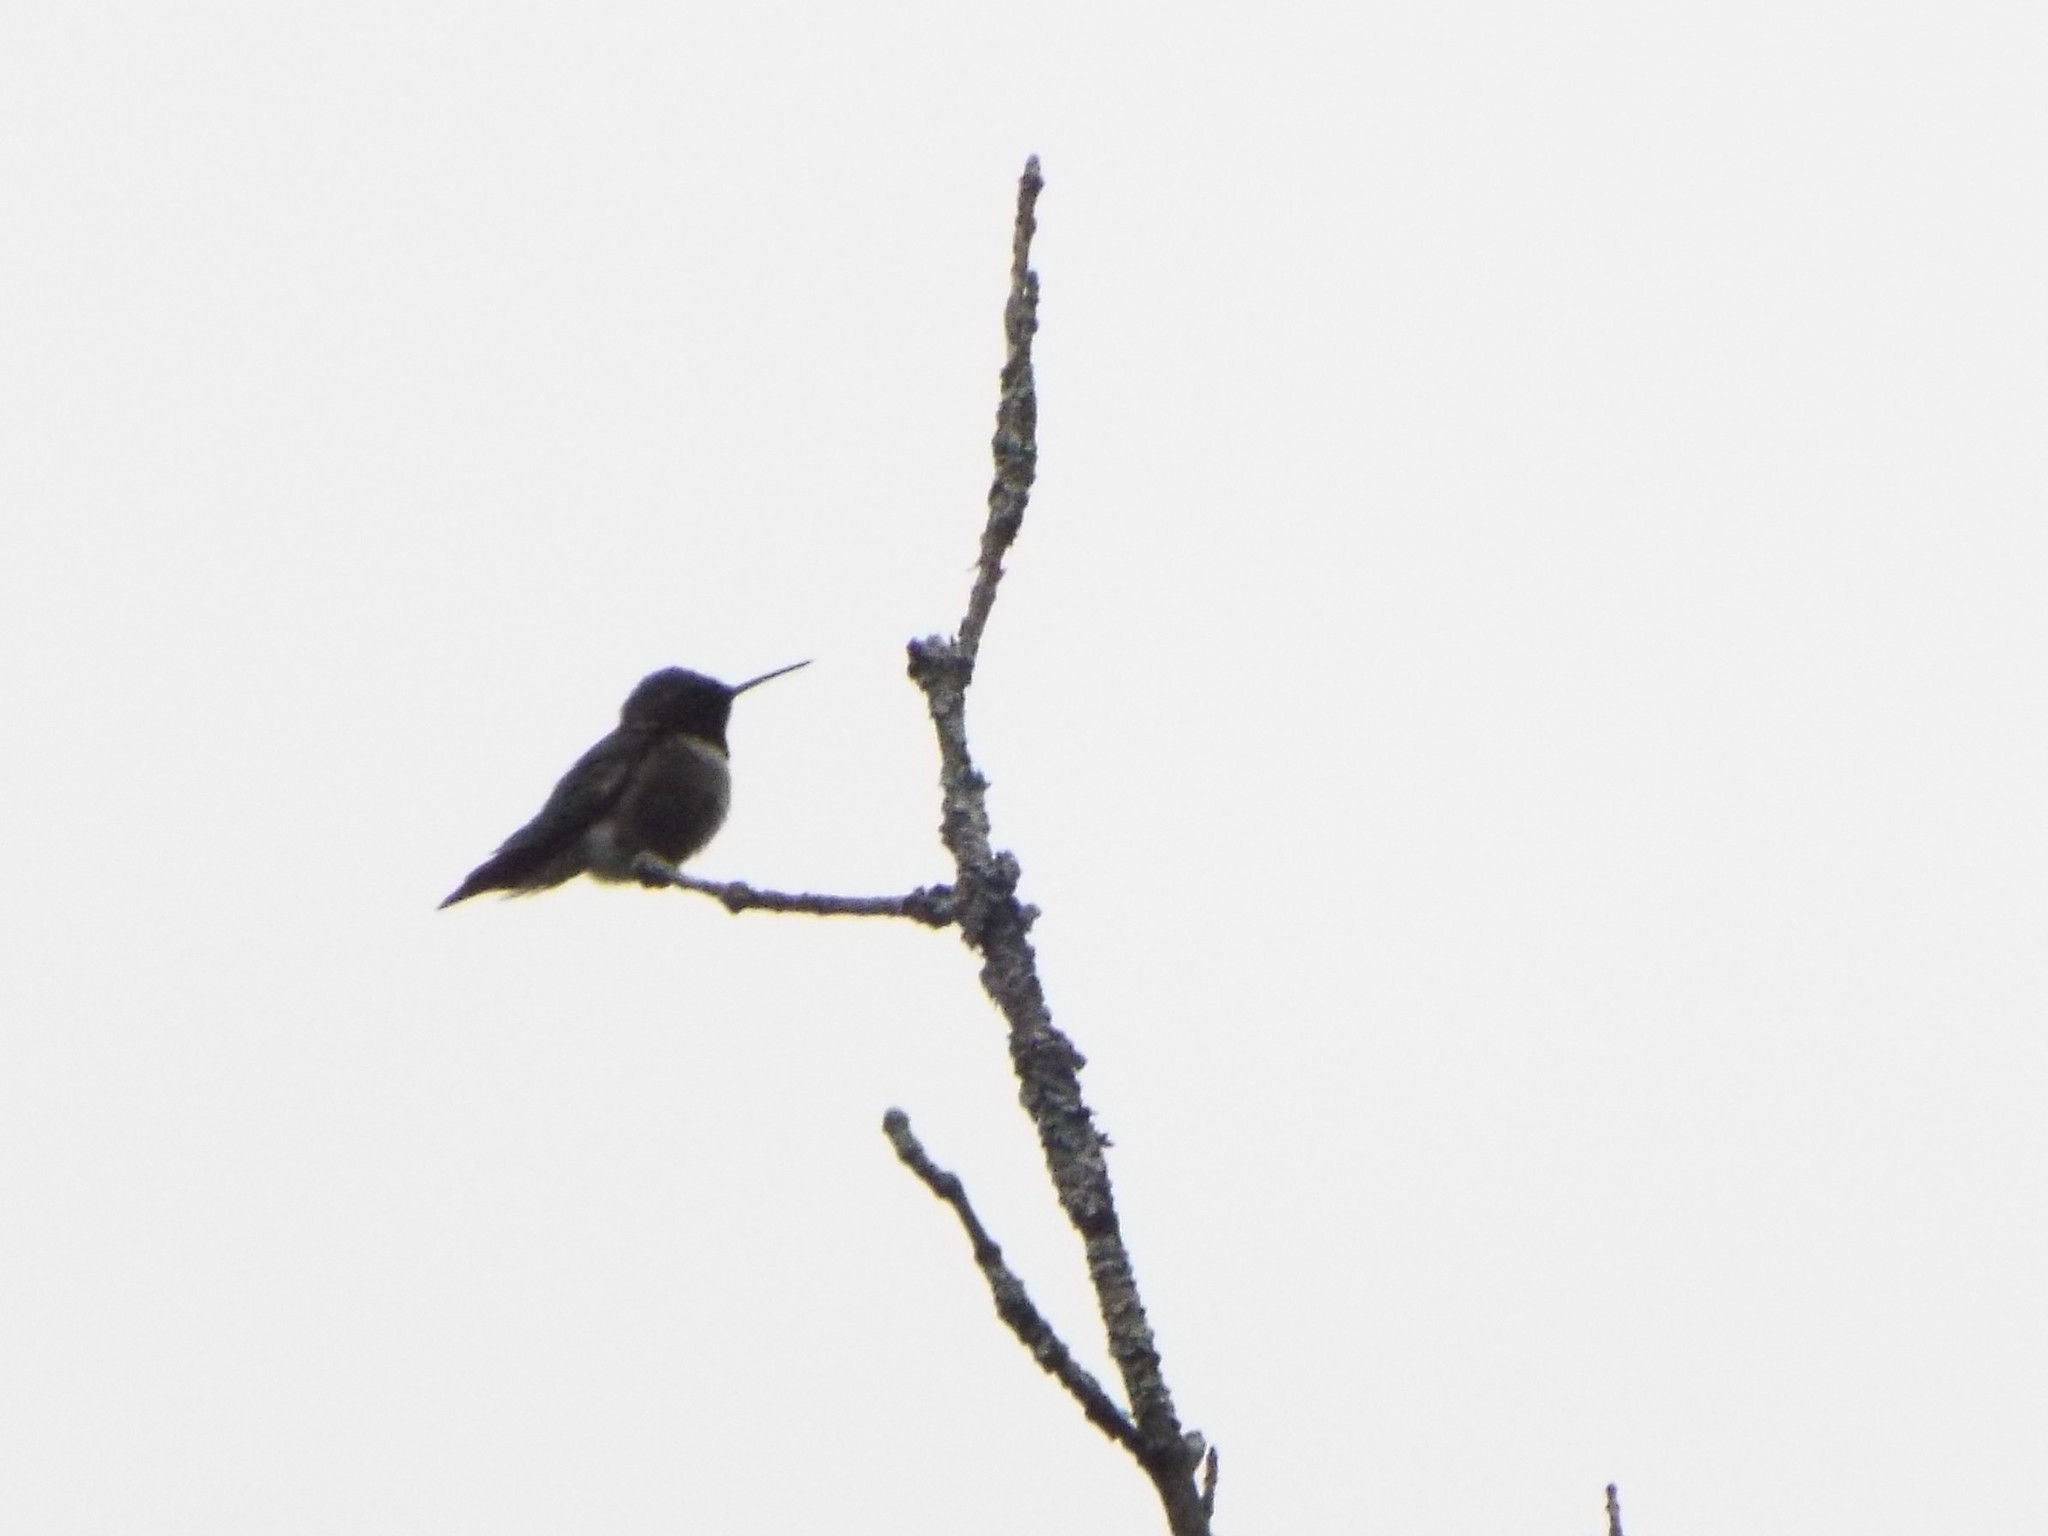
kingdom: Animalia
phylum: Chordata
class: Aves
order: Apodiformes
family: Trochilidae
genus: Archilochus
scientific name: Archilochus colubris
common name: Ruby-throated hummingbird
